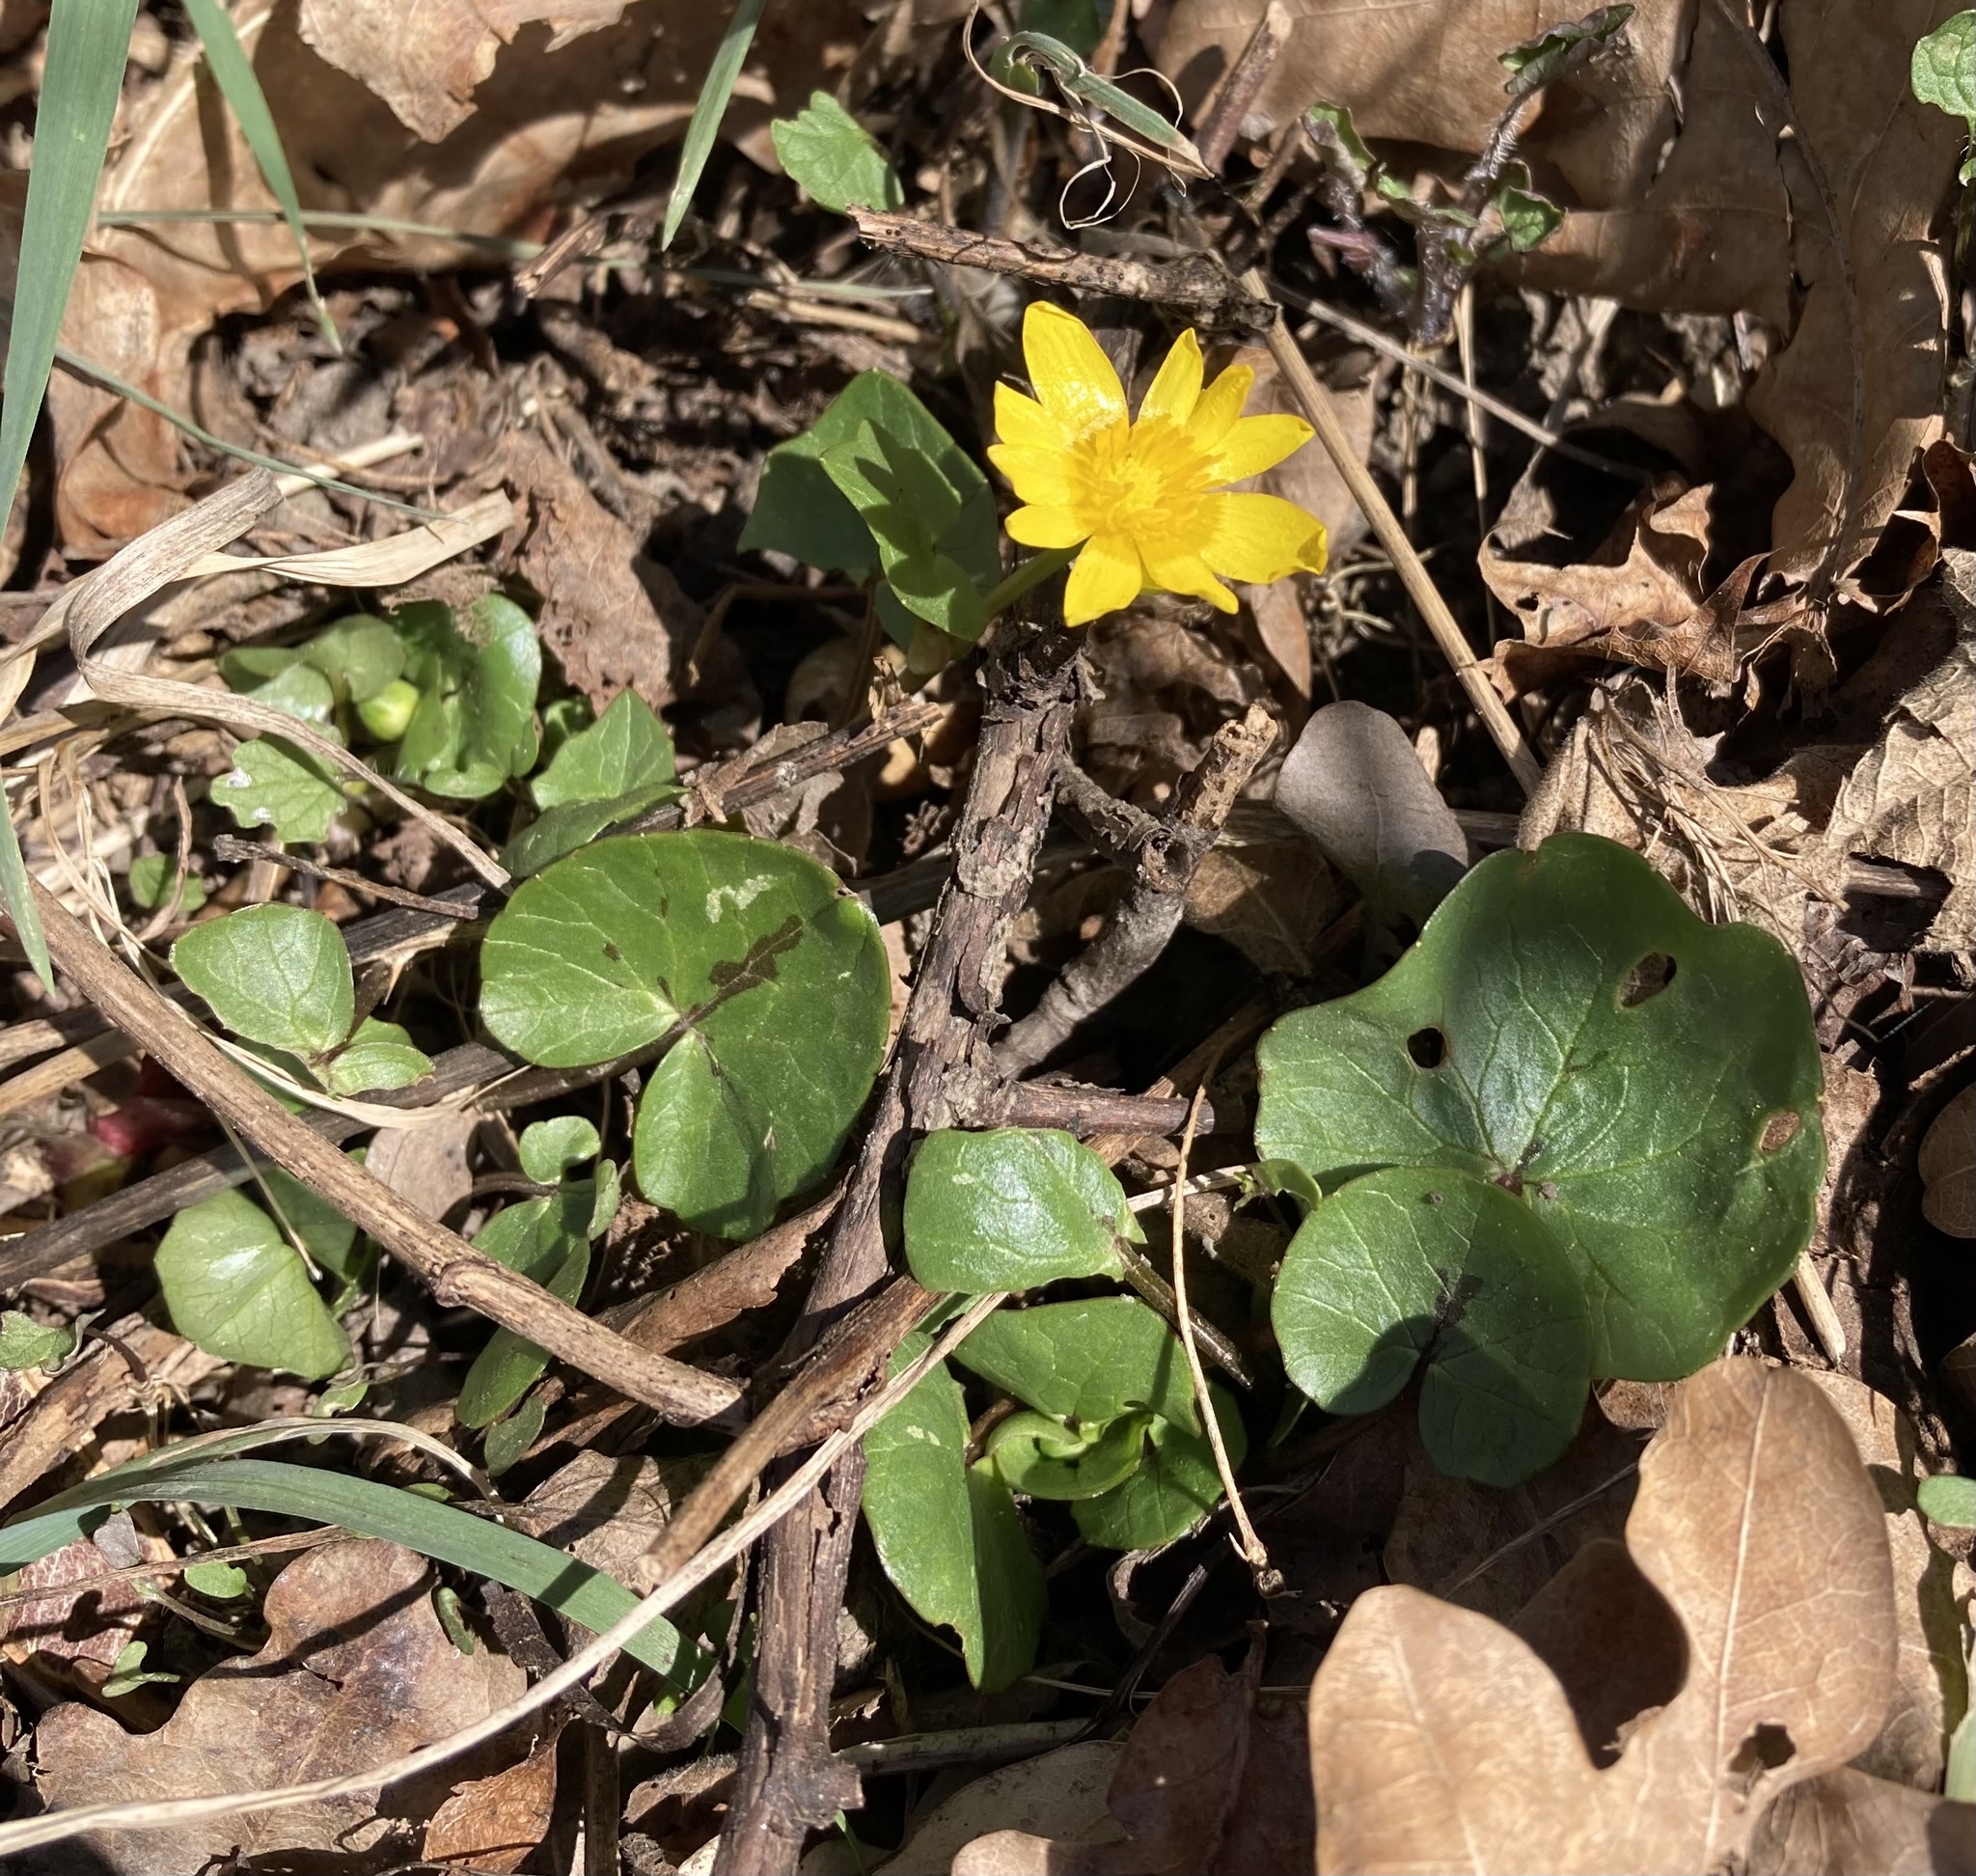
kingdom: Plantae
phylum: Tracheophyta
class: Magnoliopsida
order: Ranunculales
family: Ranunculaceae
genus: Ficaria
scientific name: Ficaria verna
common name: Lesser celandine
